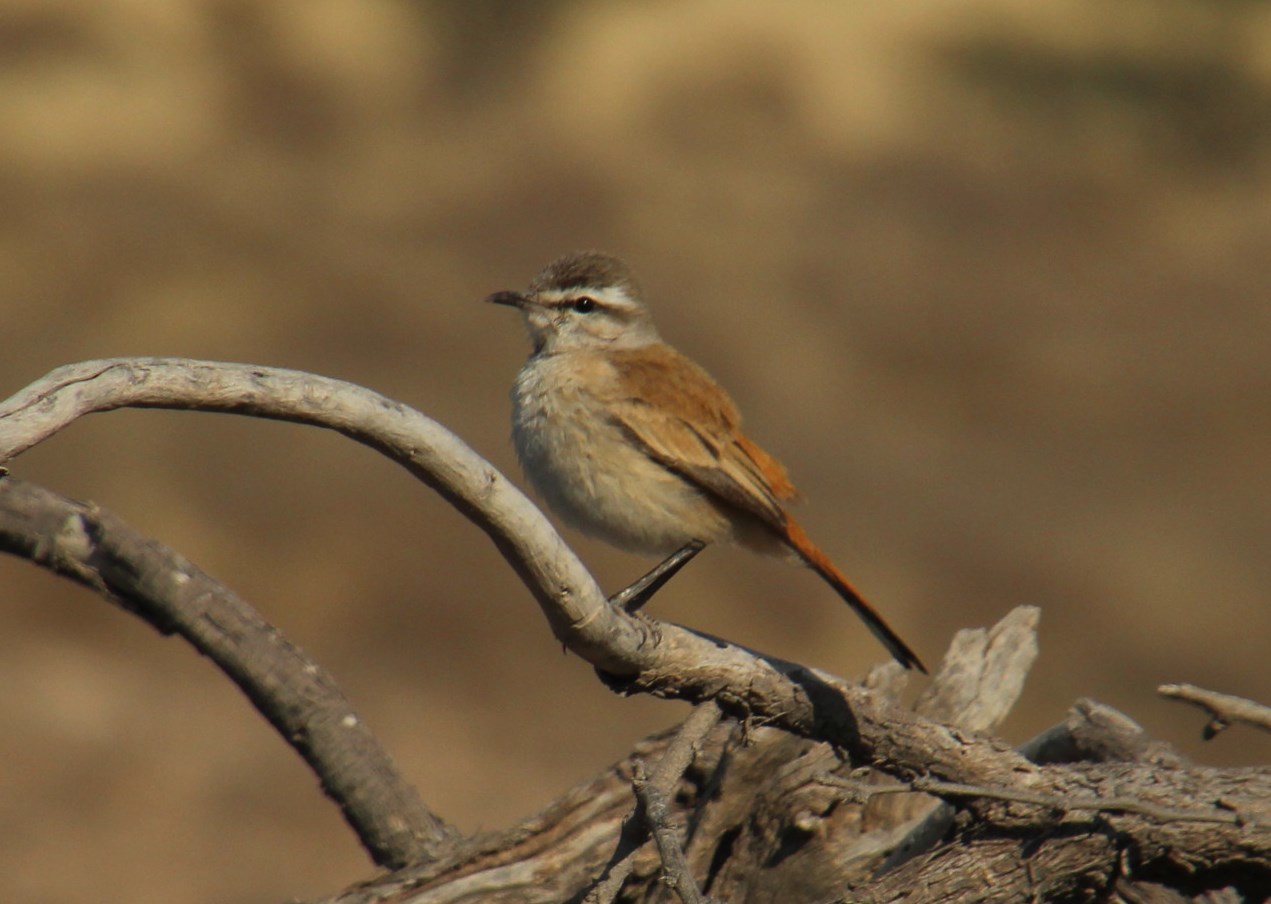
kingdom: Animalia
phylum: Chordata
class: Aves
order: Passeriformes
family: Muscicapidae
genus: Erythropygia
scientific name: Erythropygia paena
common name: Kalahari scrub robin
